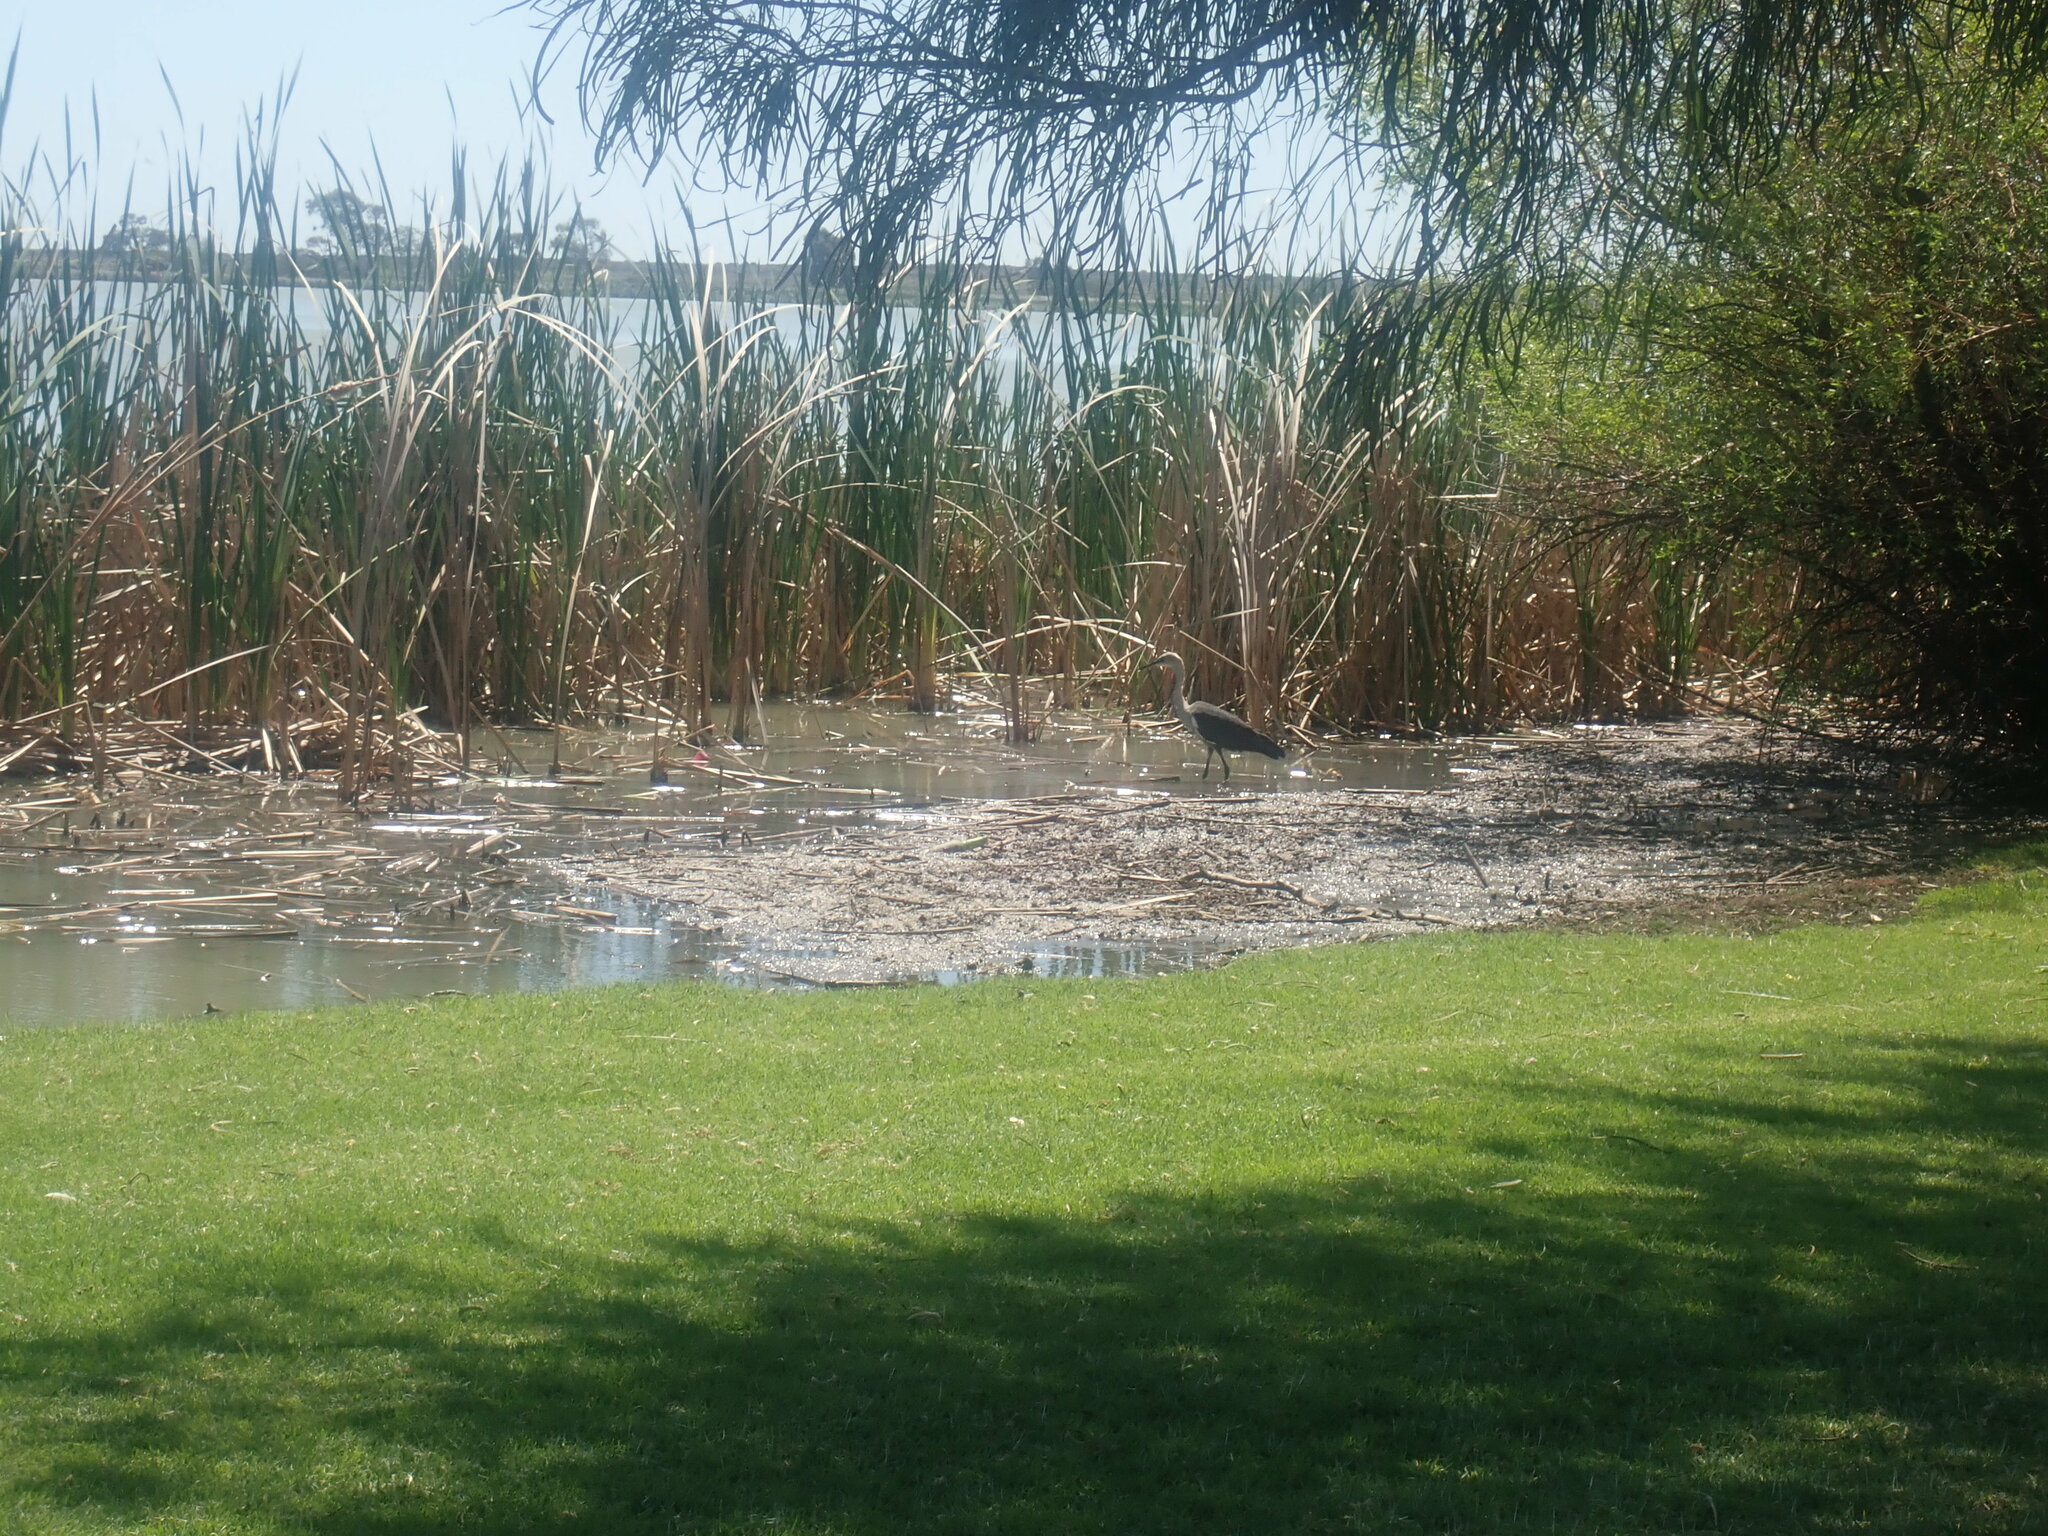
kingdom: Animalia
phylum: Chordata
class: Aves
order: Pelecaniformes
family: Ardeidae
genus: Ardea
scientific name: Ardea pacifica
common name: White-necked heron
